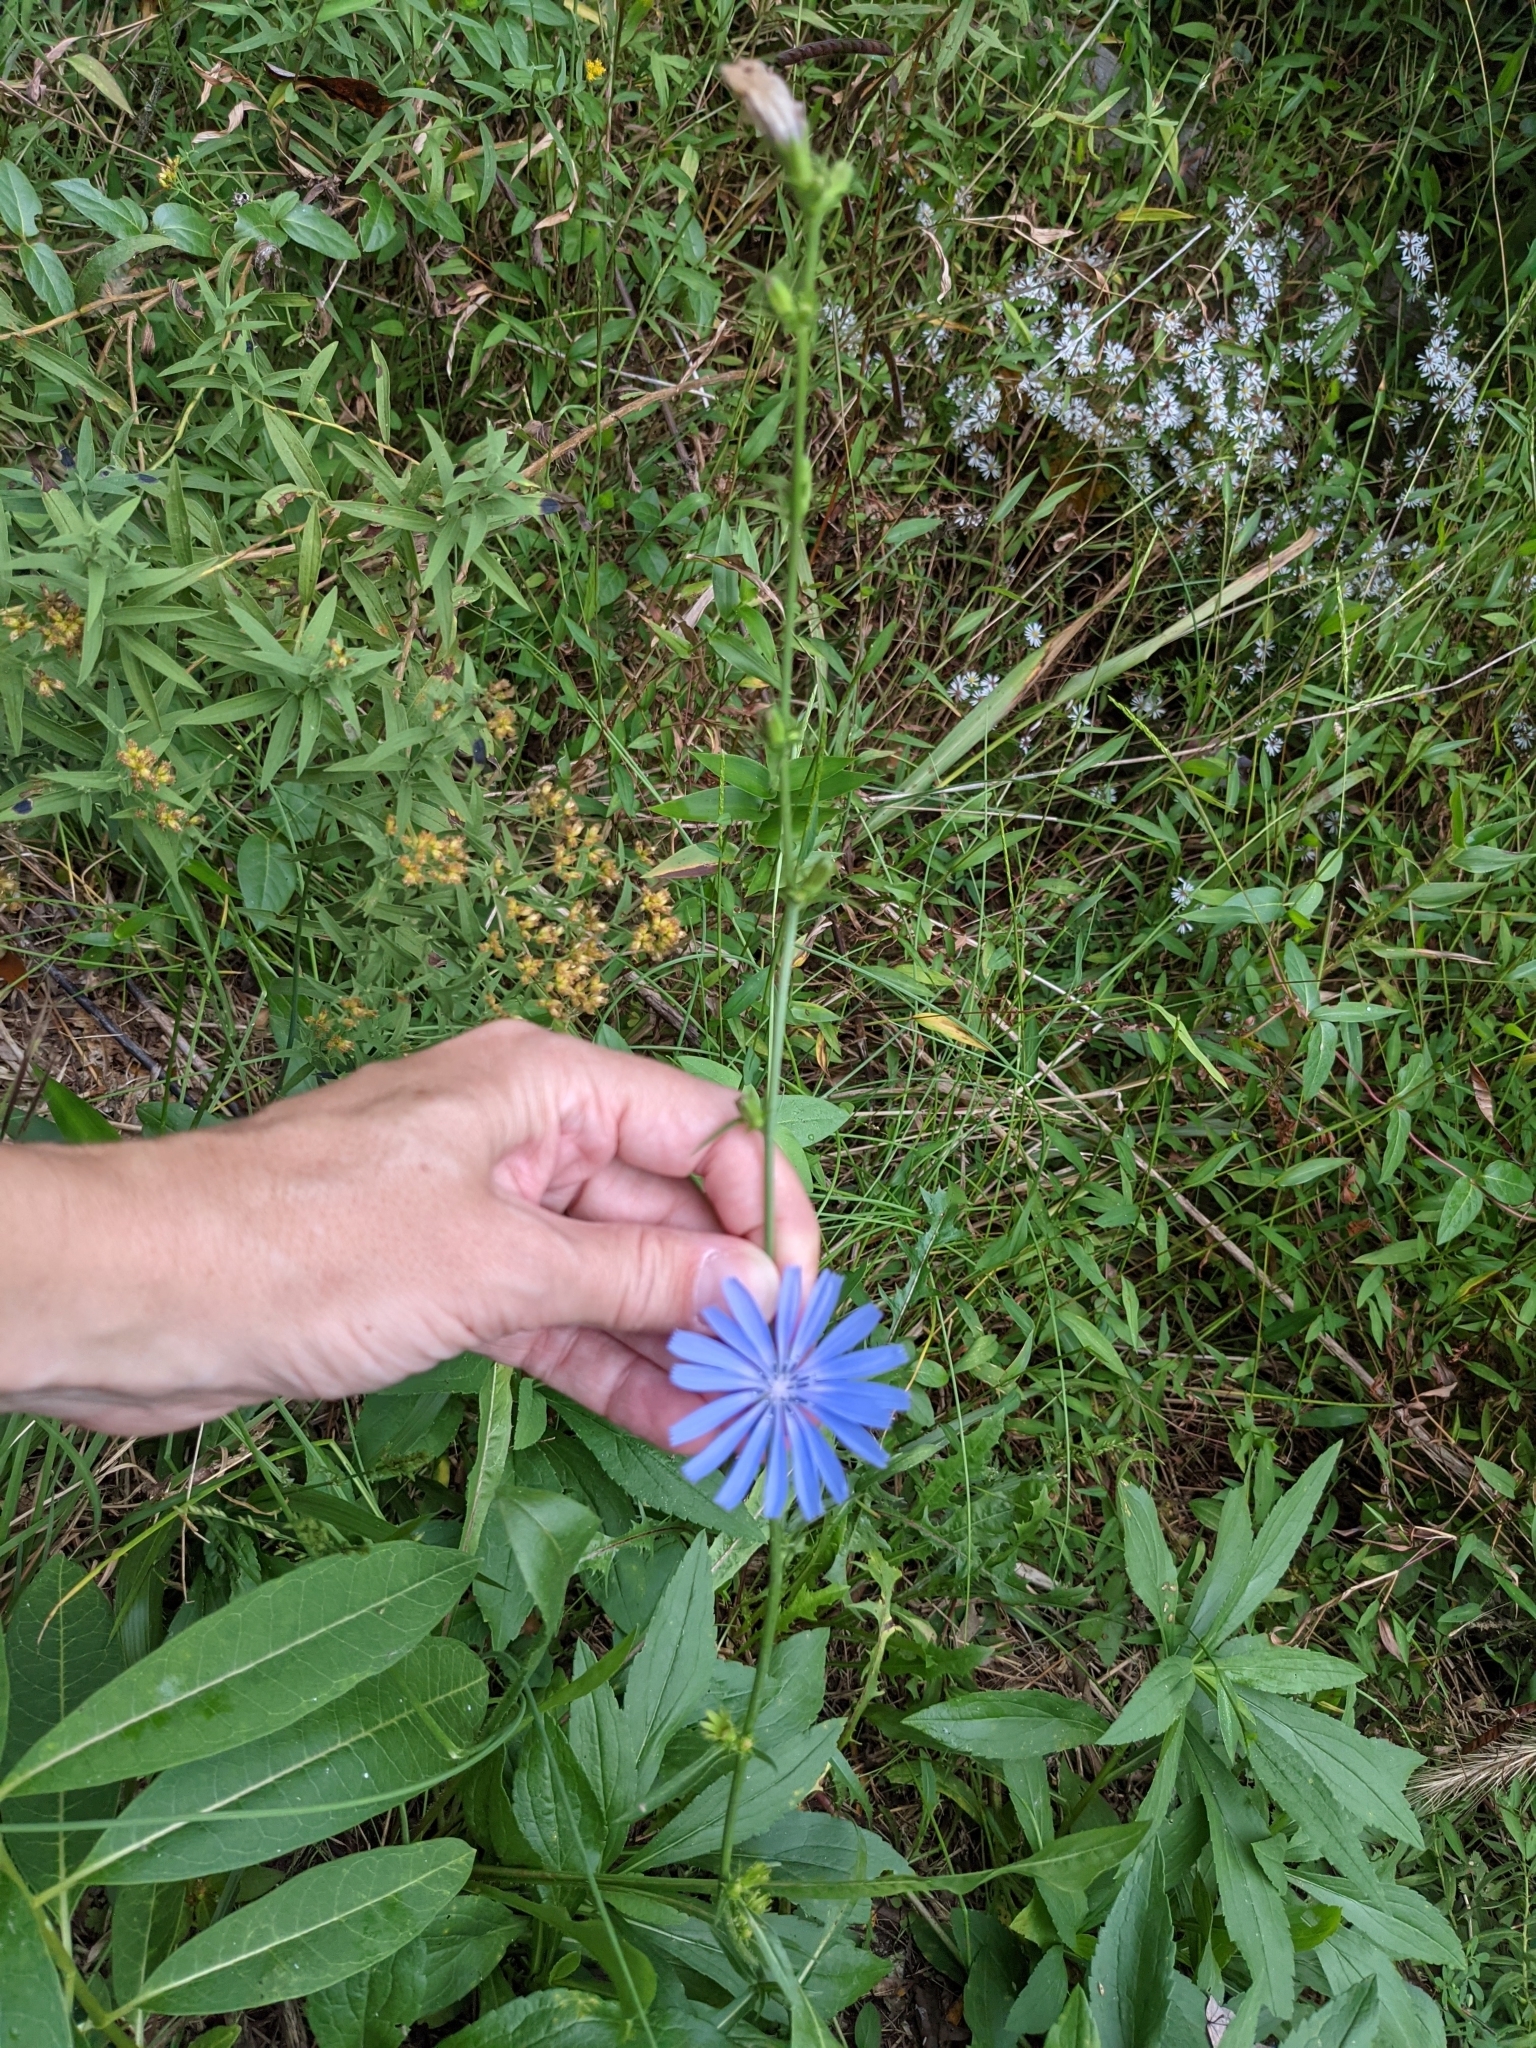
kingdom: Plantae
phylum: Tracheophyta
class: Magnoliopsida
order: Asterales
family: Asteraceae
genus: Cichorium
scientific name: Cichorium intybus
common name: Chicory
